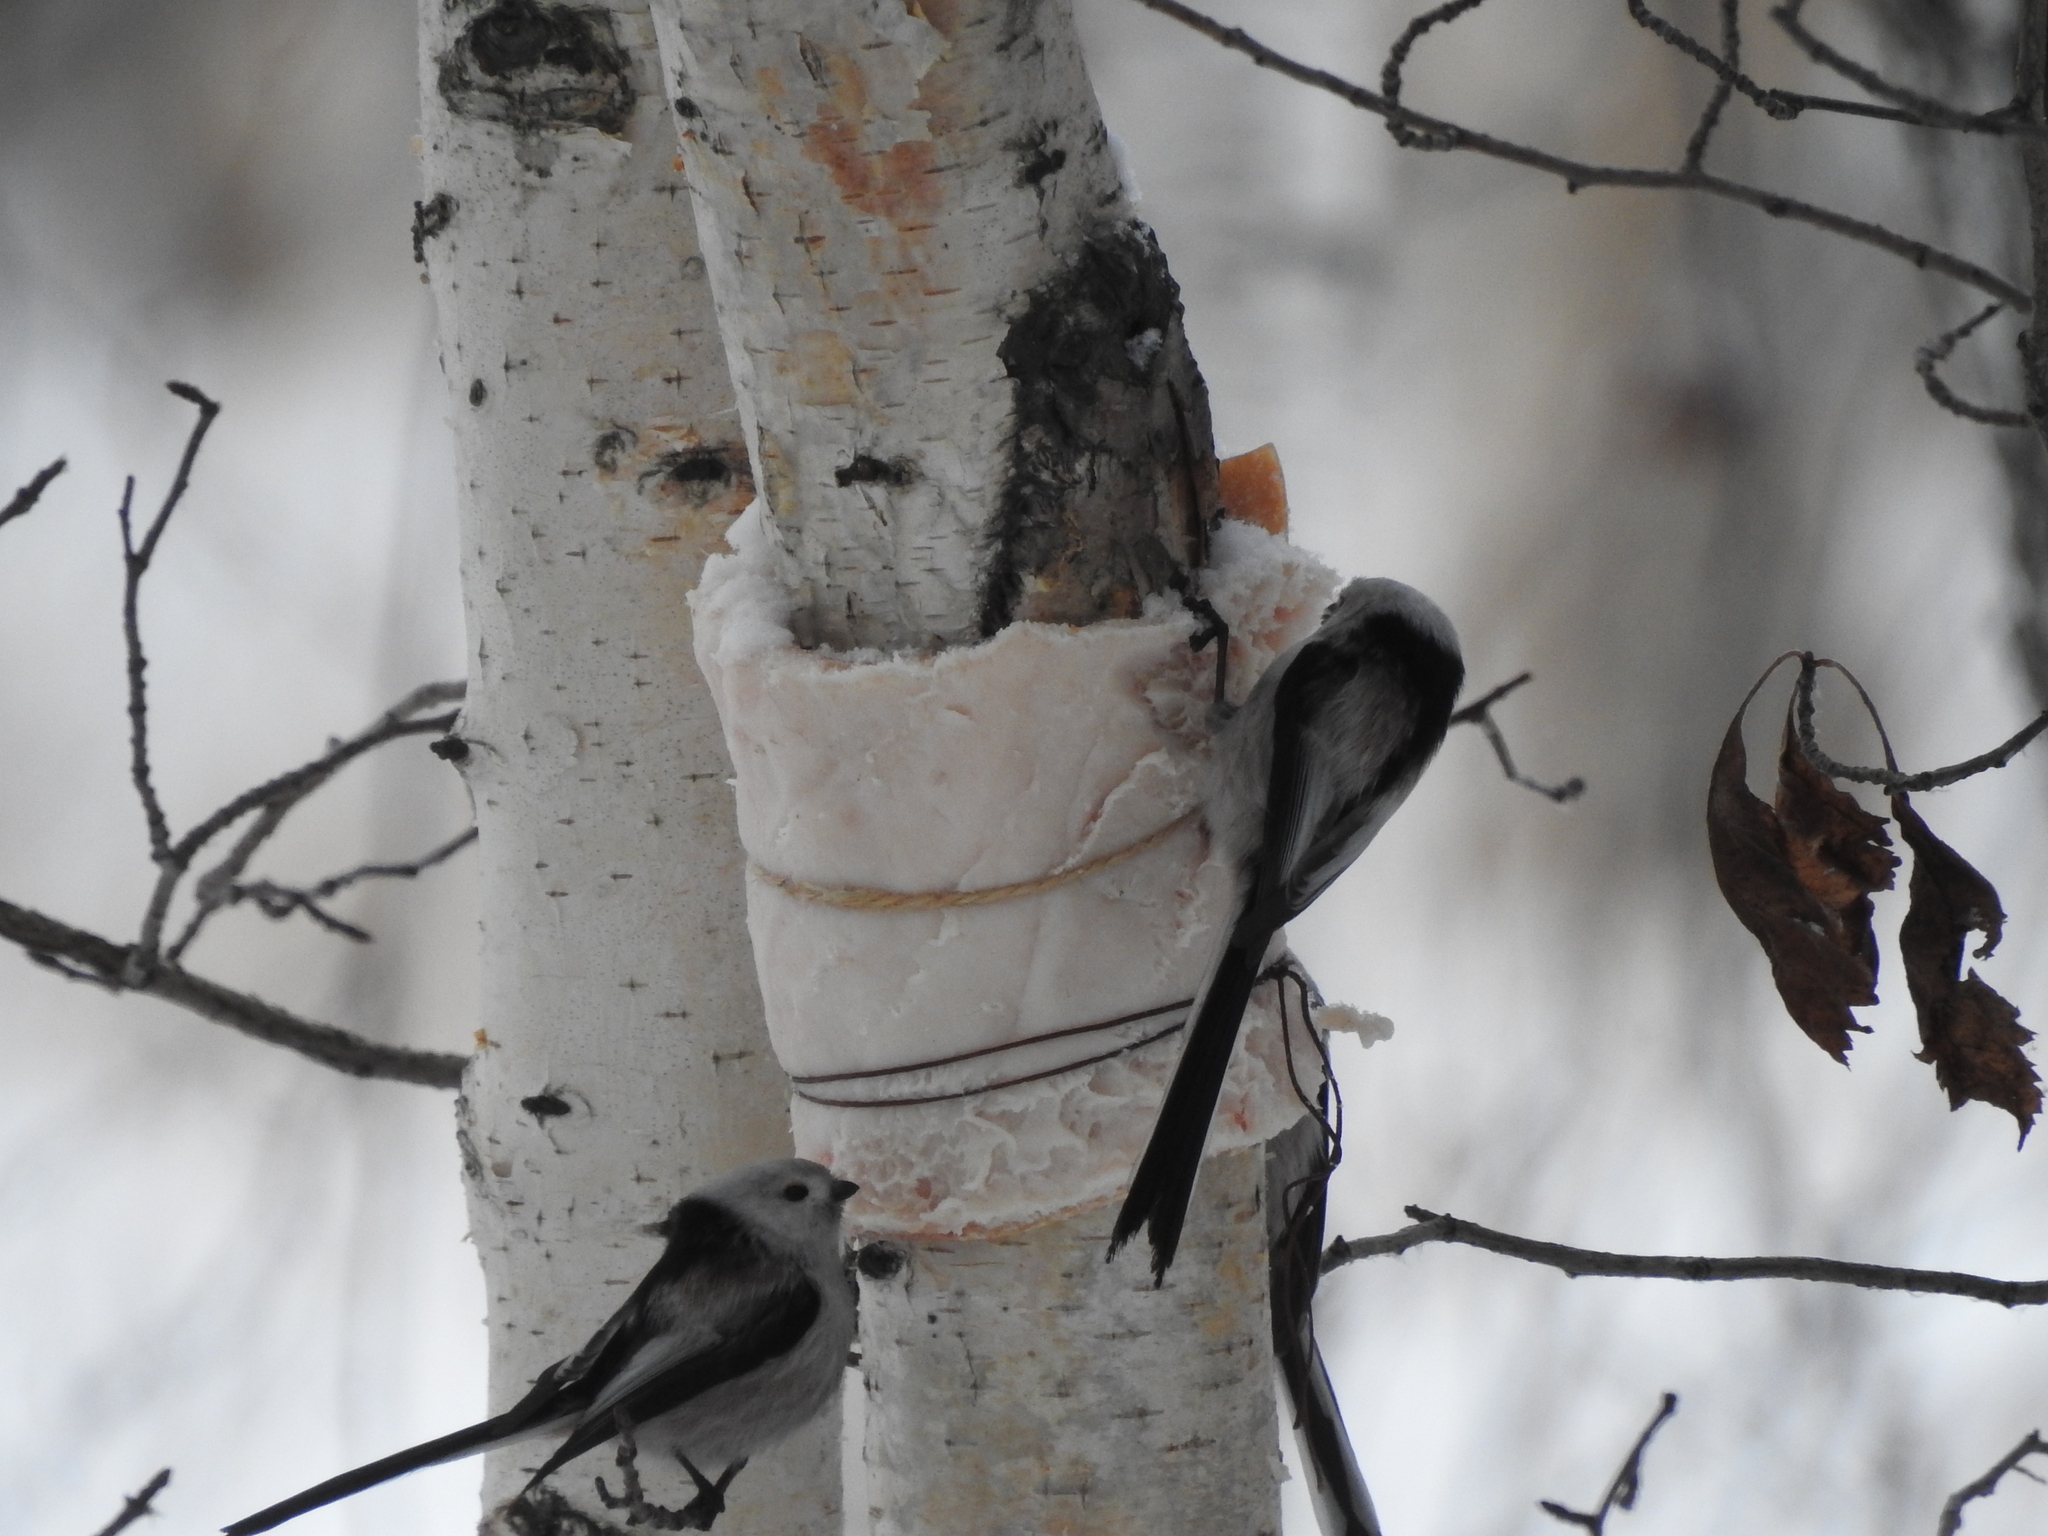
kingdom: Animalia
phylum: Chordata
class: Aves
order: Passeriformes
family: Aegithalidae
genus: Aegithalos
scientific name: Aegithalos caudatus
